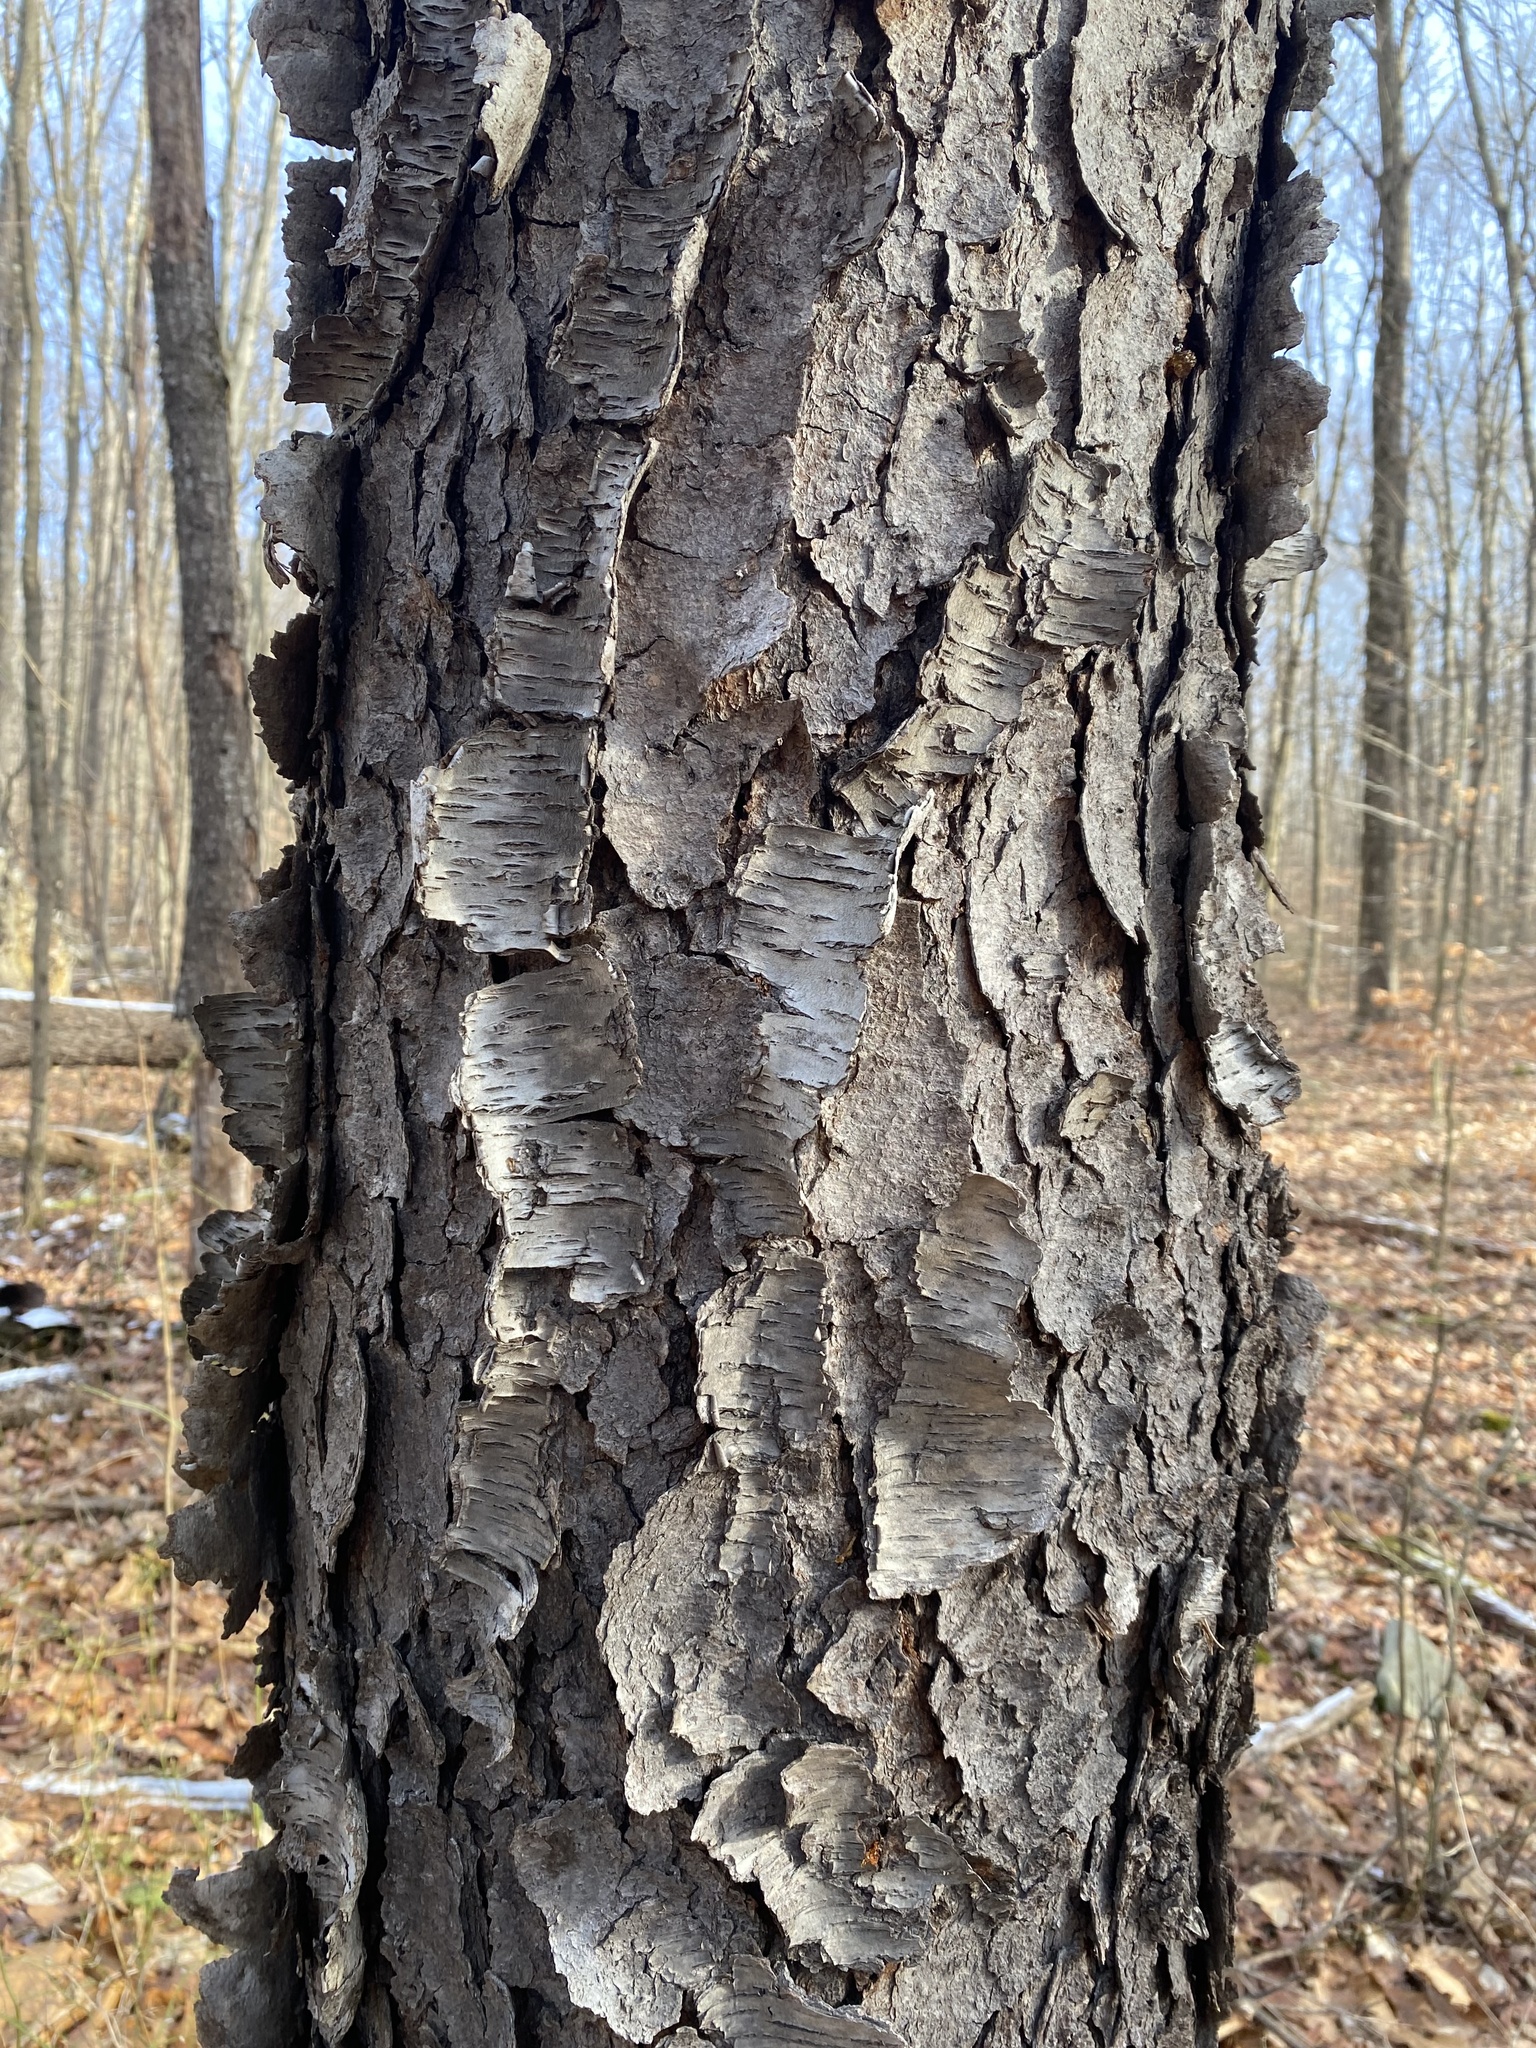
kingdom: Plantae
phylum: Tracheophyta
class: Magnoliopsida
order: Rosales
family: Rosaceae
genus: Prunus
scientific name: Prunus serotina
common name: Black cherry
